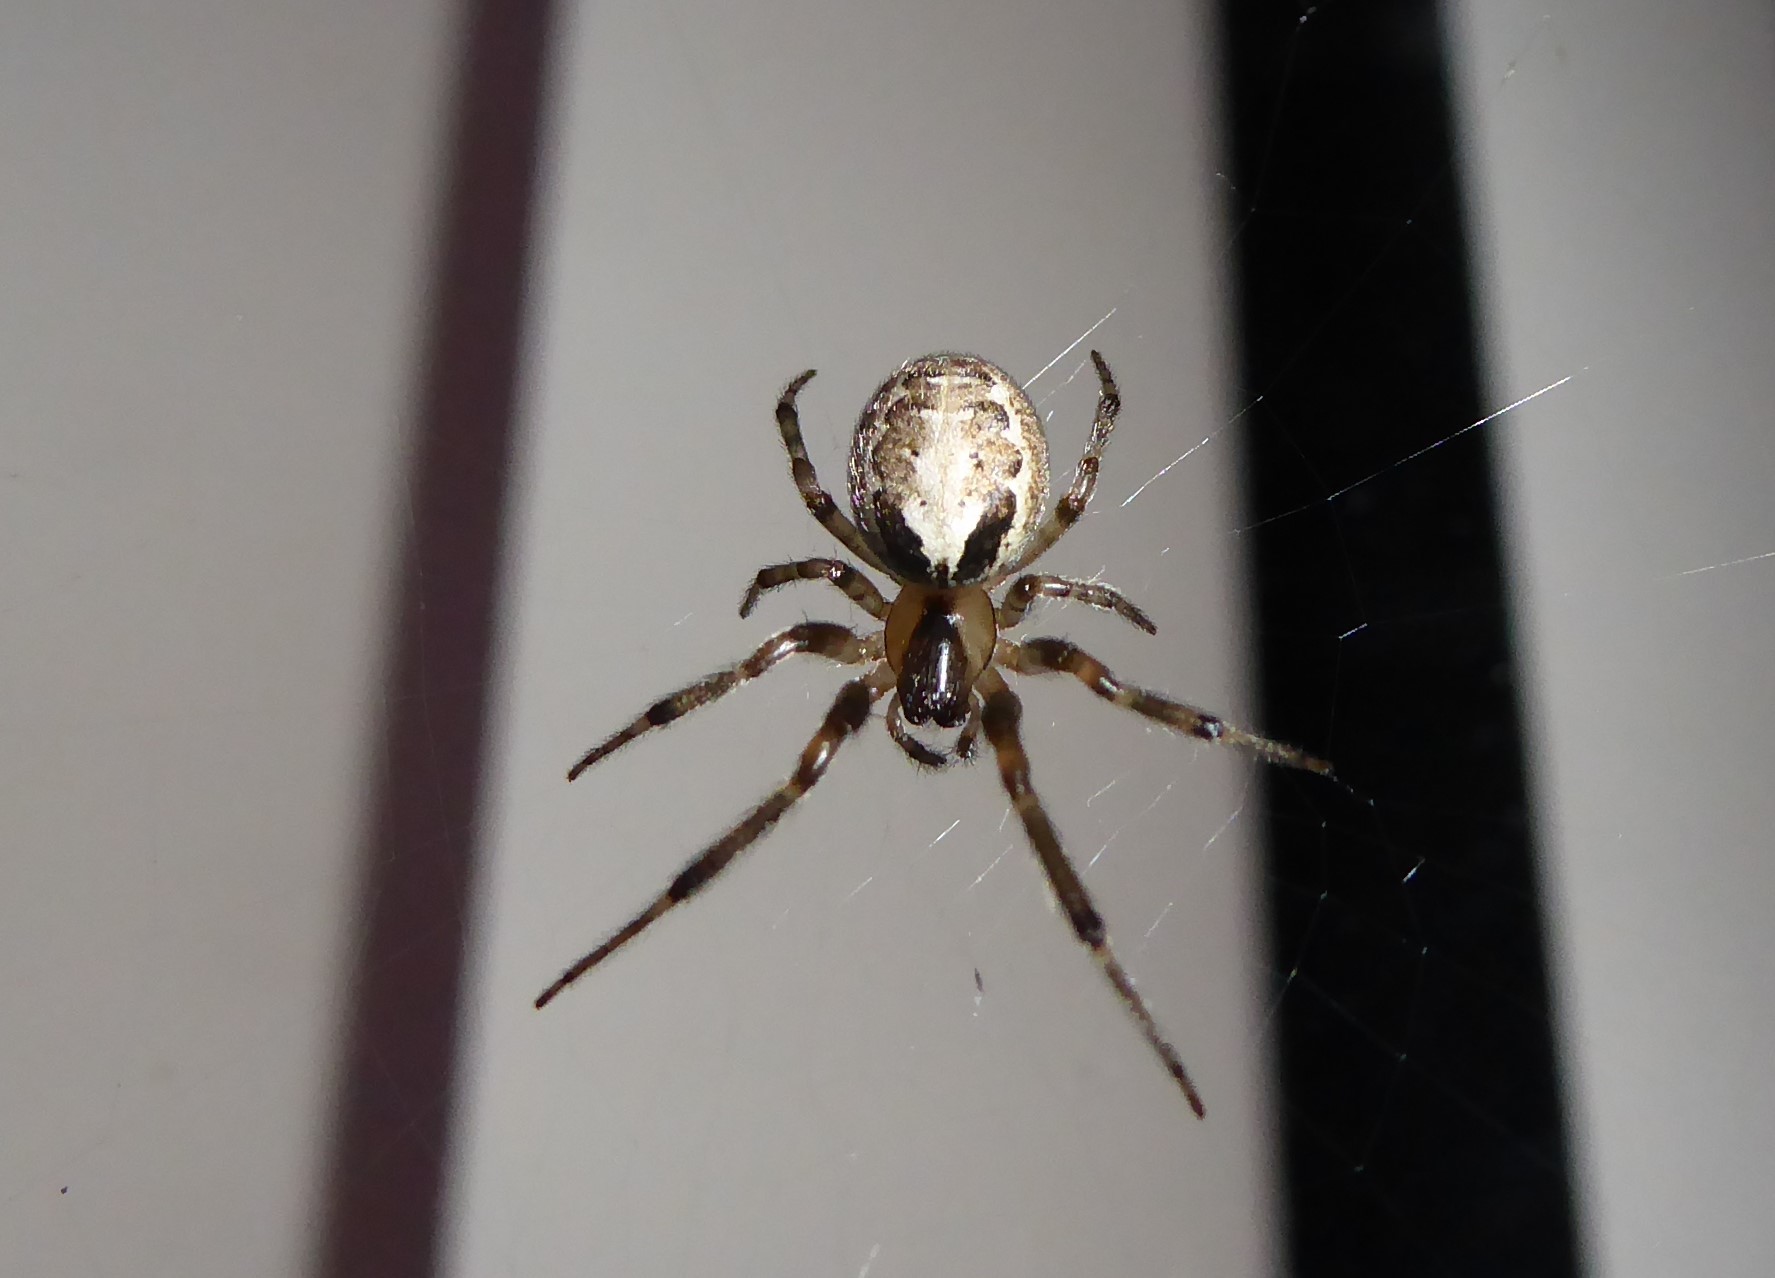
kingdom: Animalia
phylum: Arthropoda
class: Arachnida
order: Araneae
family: Araneidae
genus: Zygiella
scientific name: Zygiella x-notata
